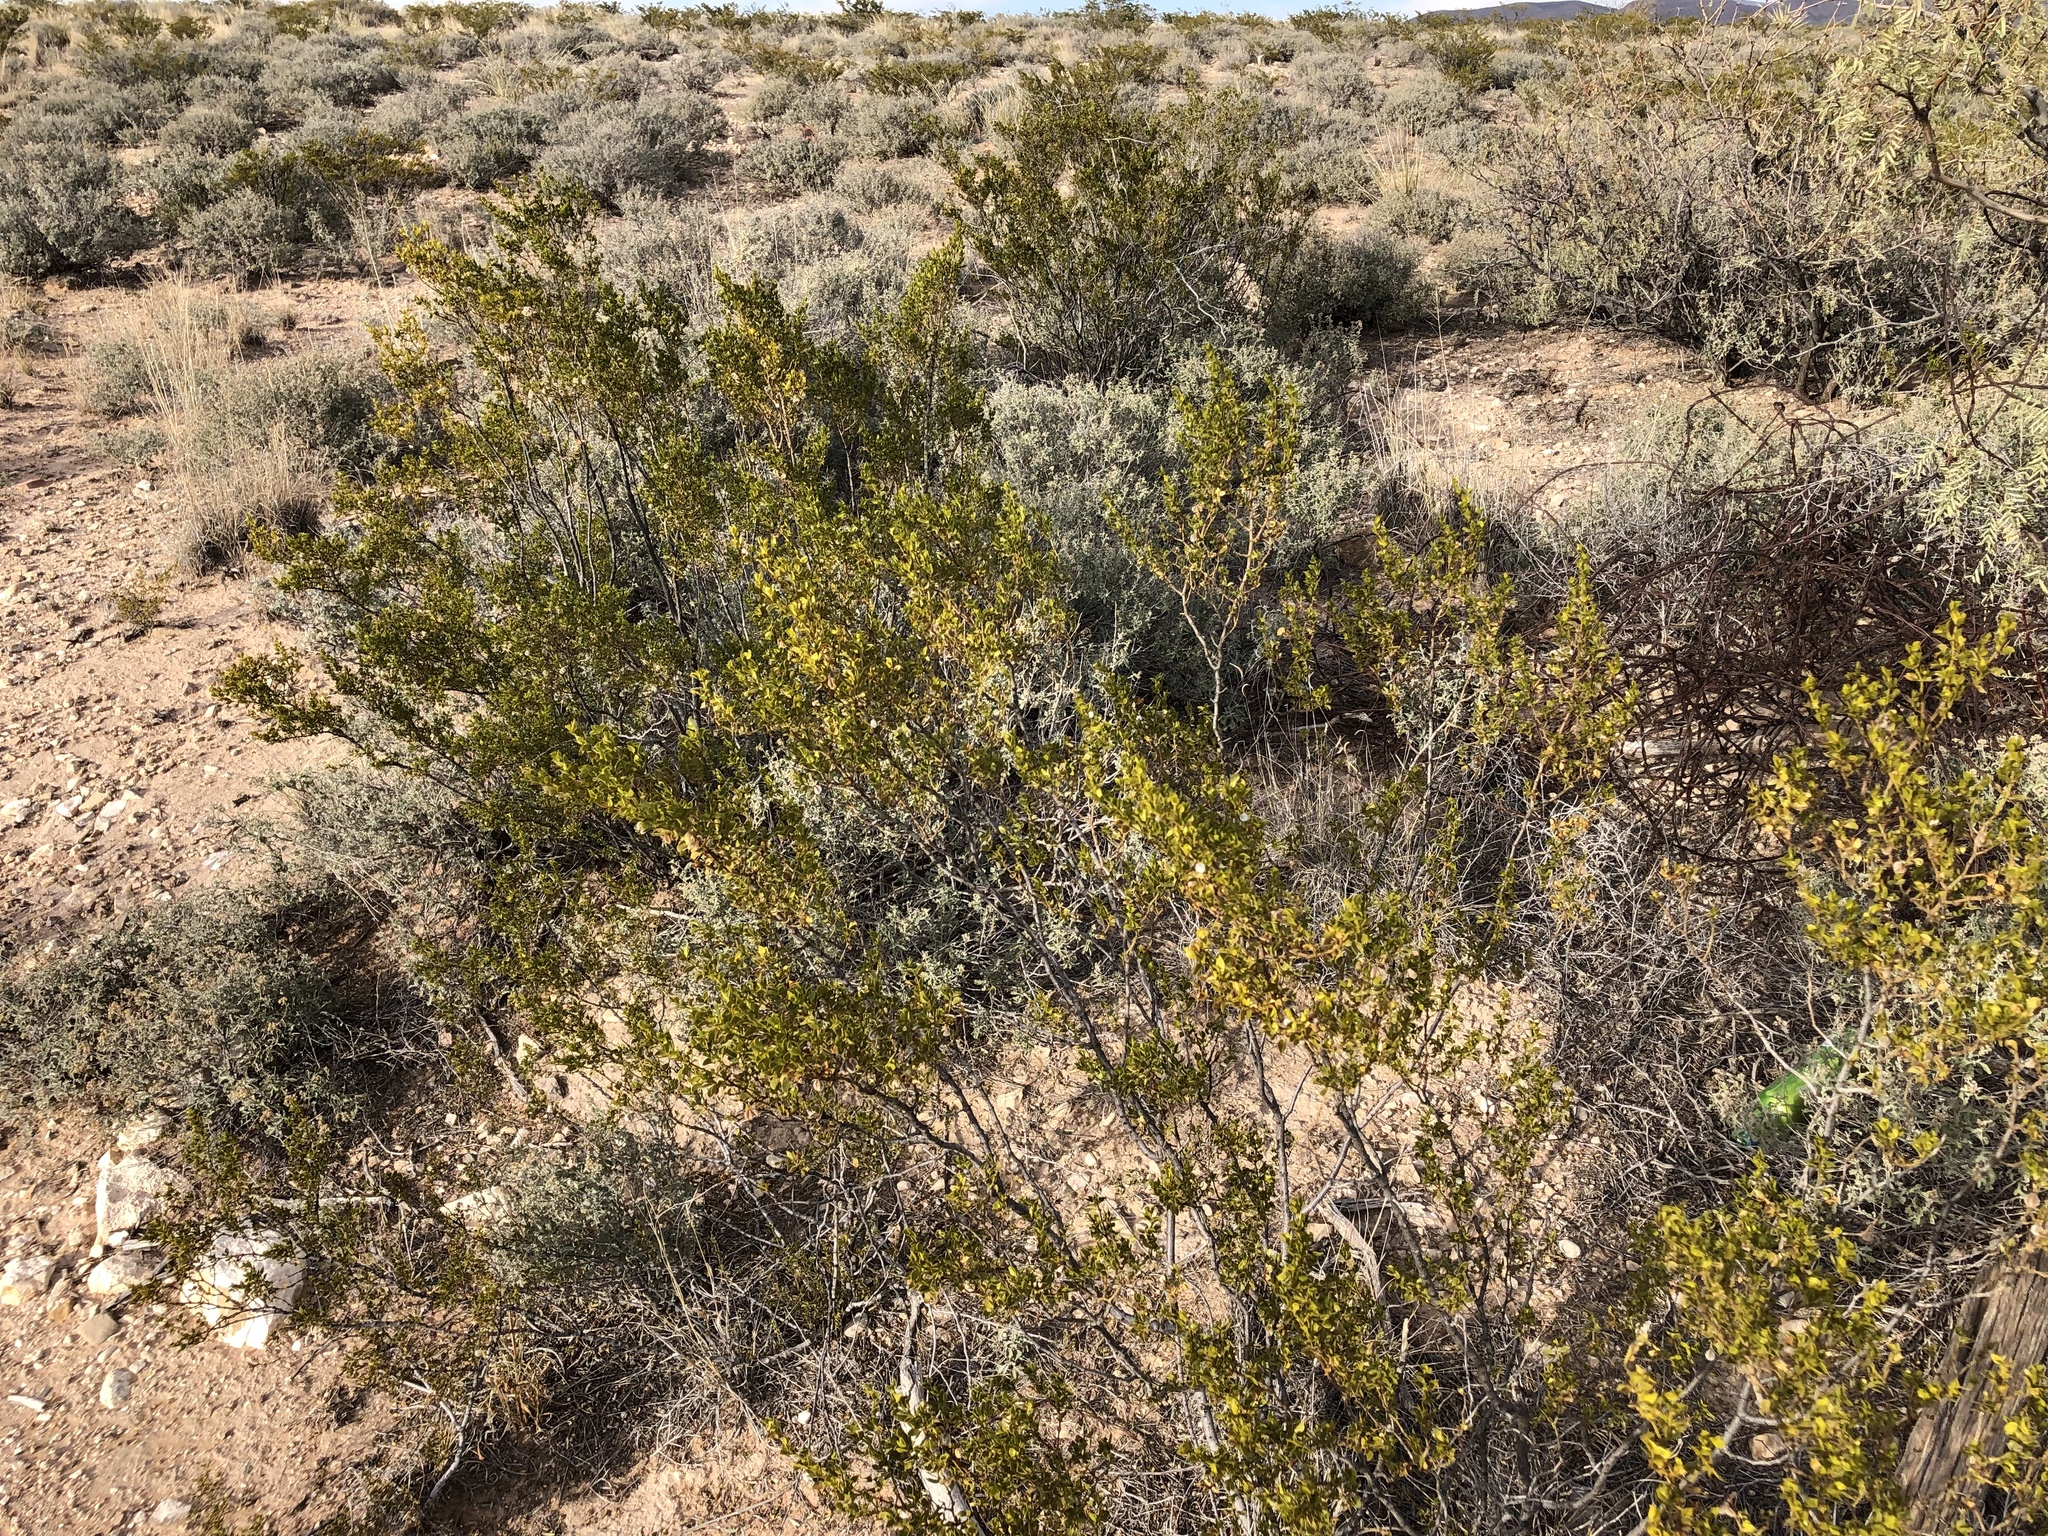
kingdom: Plantae
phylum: Tracheophyta
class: Magnoliopsida
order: Zygophyllales
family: Zygophyllaceae
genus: Larrea
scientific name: Larrea tridentata
